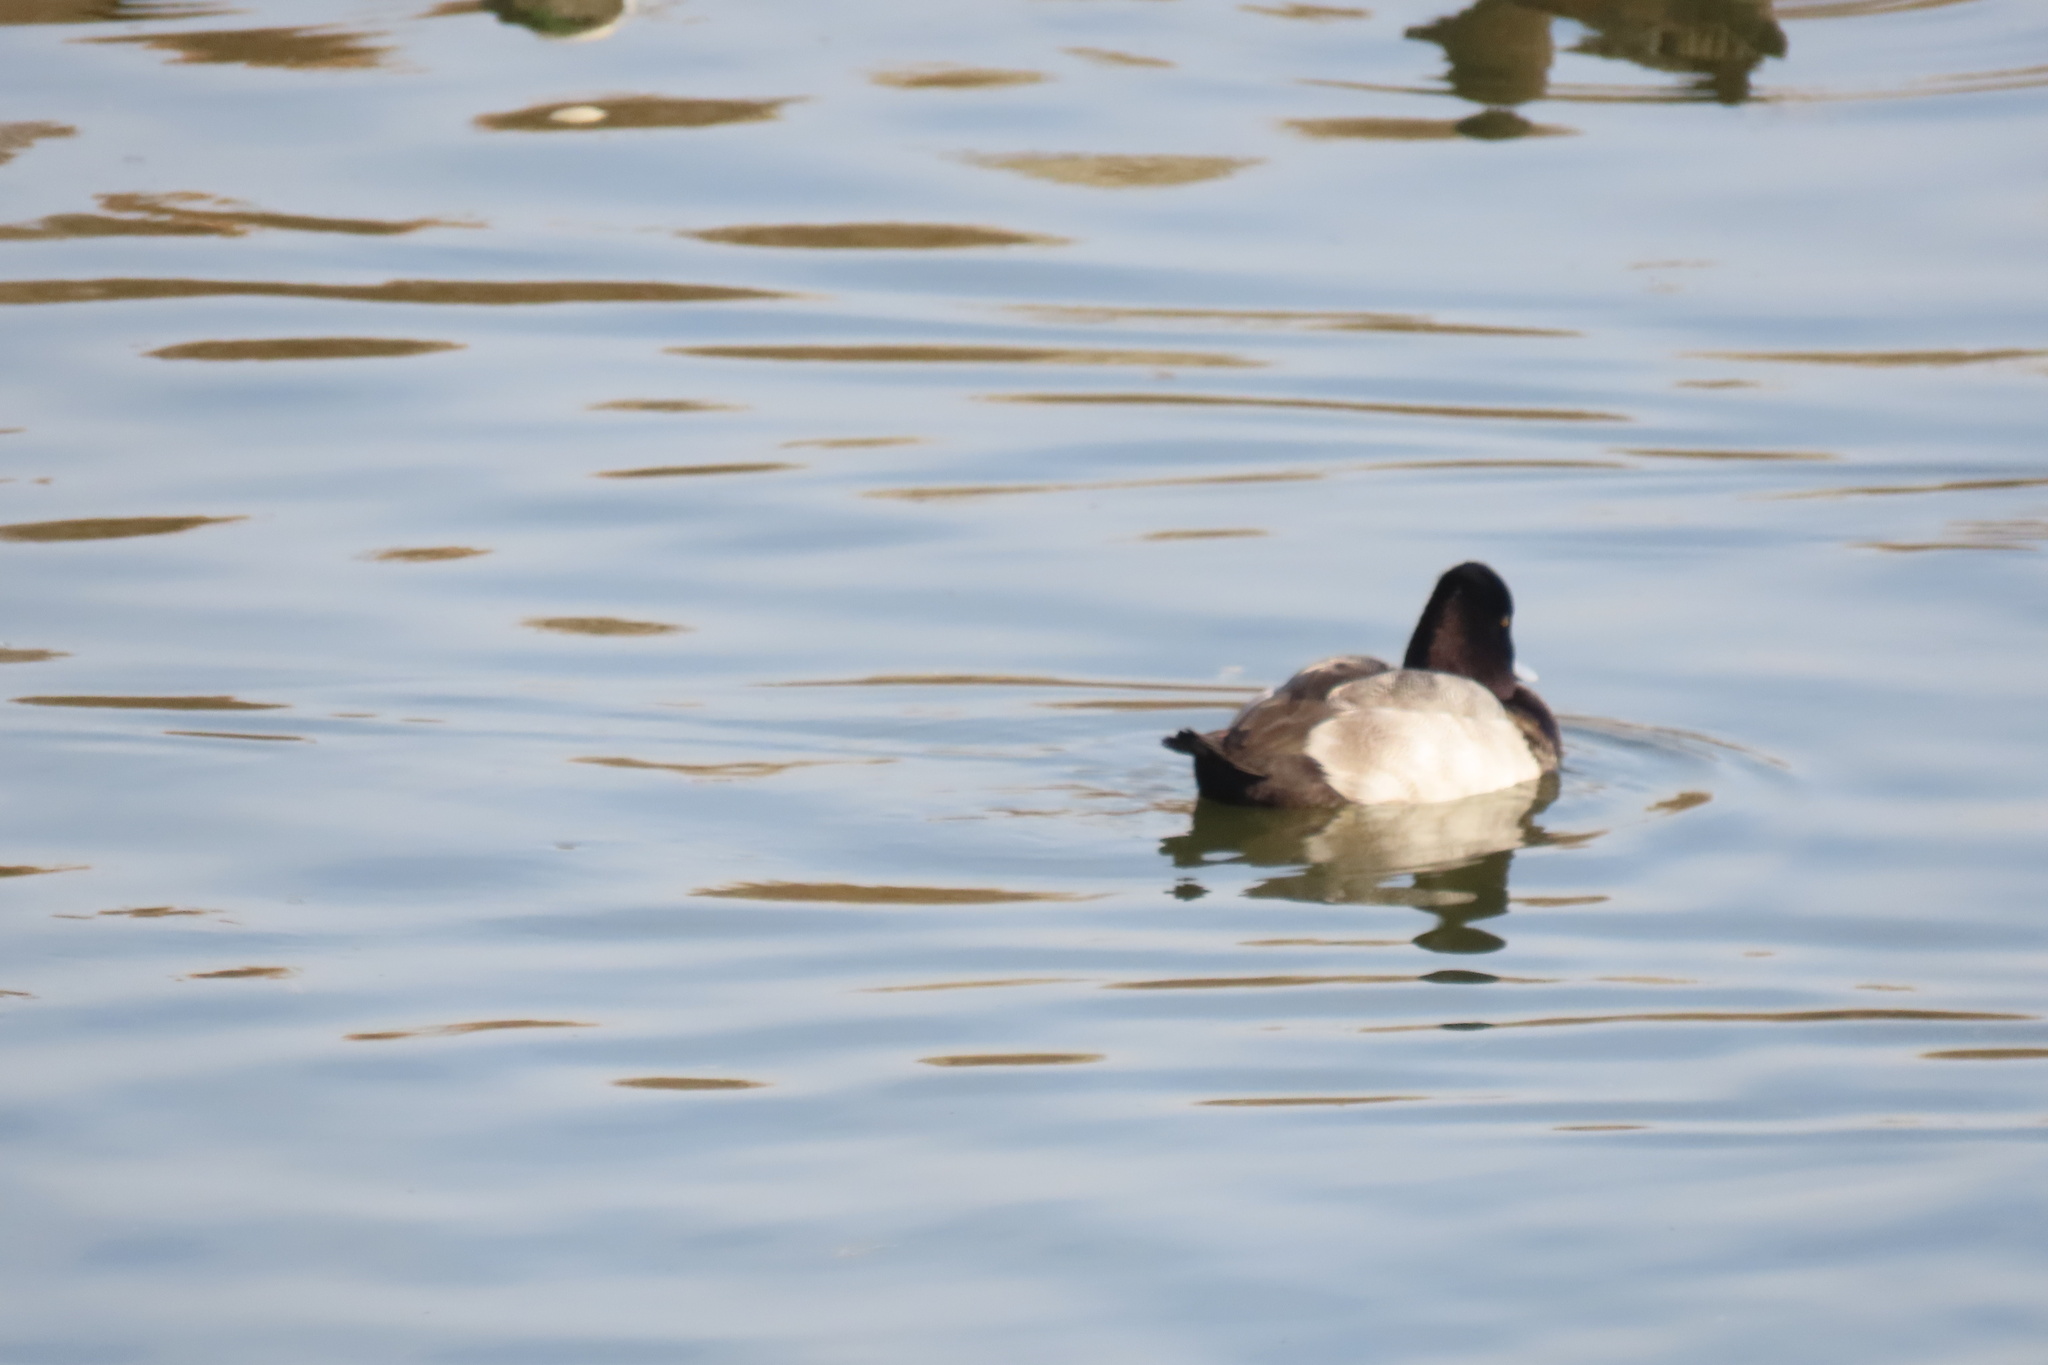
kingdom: Animalia
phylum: Chordata
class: Aves
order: Anseriformes
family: Anatidae
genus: Aythya
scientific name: Aythya affinis
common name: Lesser scaup
